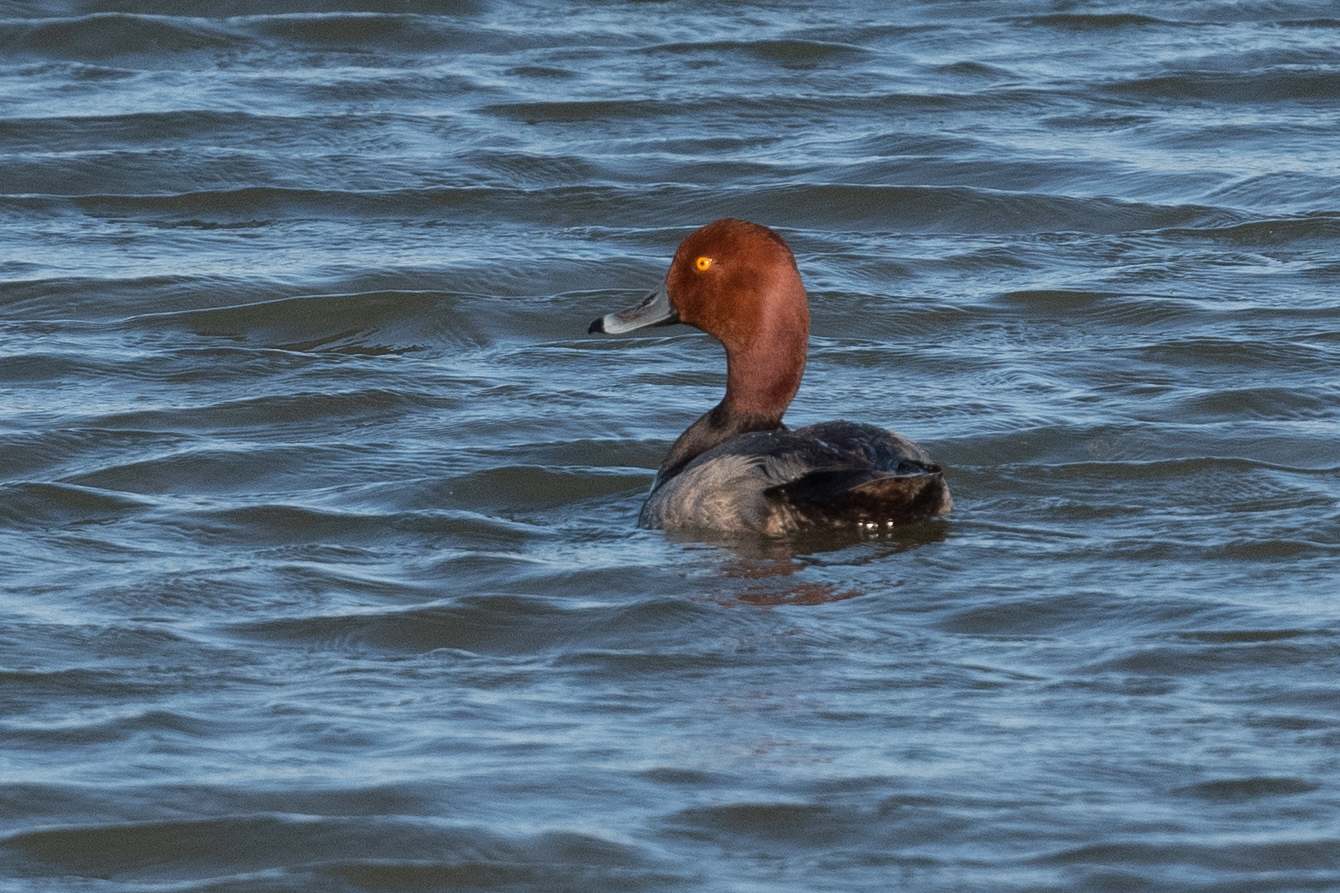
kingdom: Animalia
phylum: Chordata
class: Aves
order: Anseriformes
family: Anatidae
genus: Aythya
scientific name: Aythya americana
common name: Redhead
